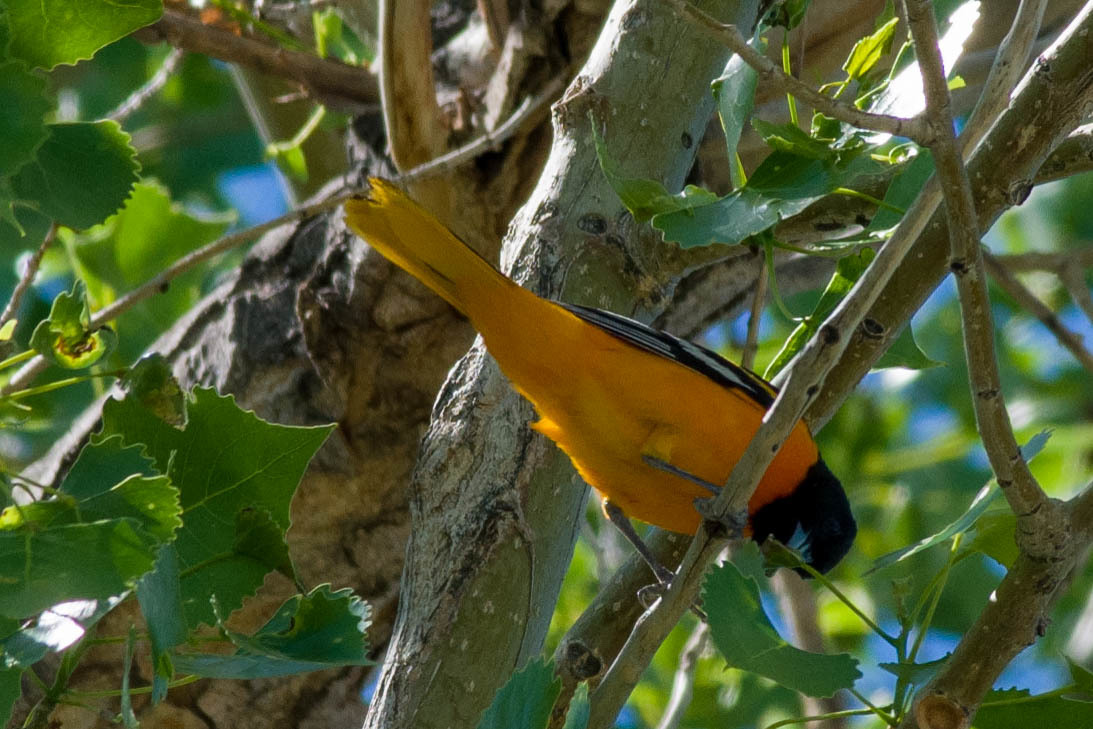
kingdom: Animalia
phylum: Chordata
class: Aves
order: Passeriformes
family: Icteridae
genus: Icterus
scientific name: Icterus galbula
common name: Baltimore oriole
